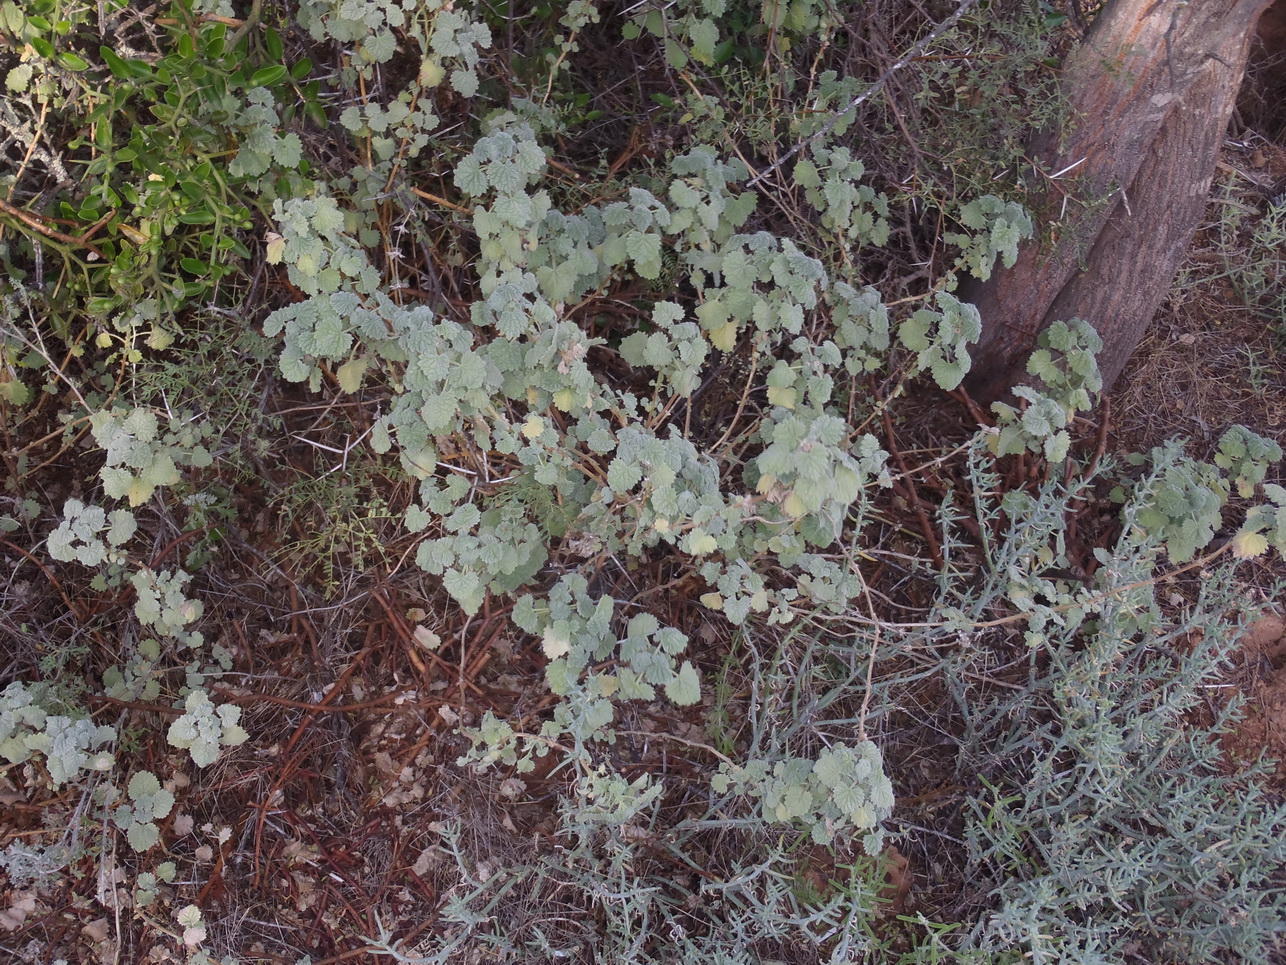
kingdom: Plantae
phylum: Tracheophyta
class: Magnoliopsida
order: Lamiales
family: Lamiaceae
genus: Pseudodictamnus
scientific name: Pseudodictamnus africanus
